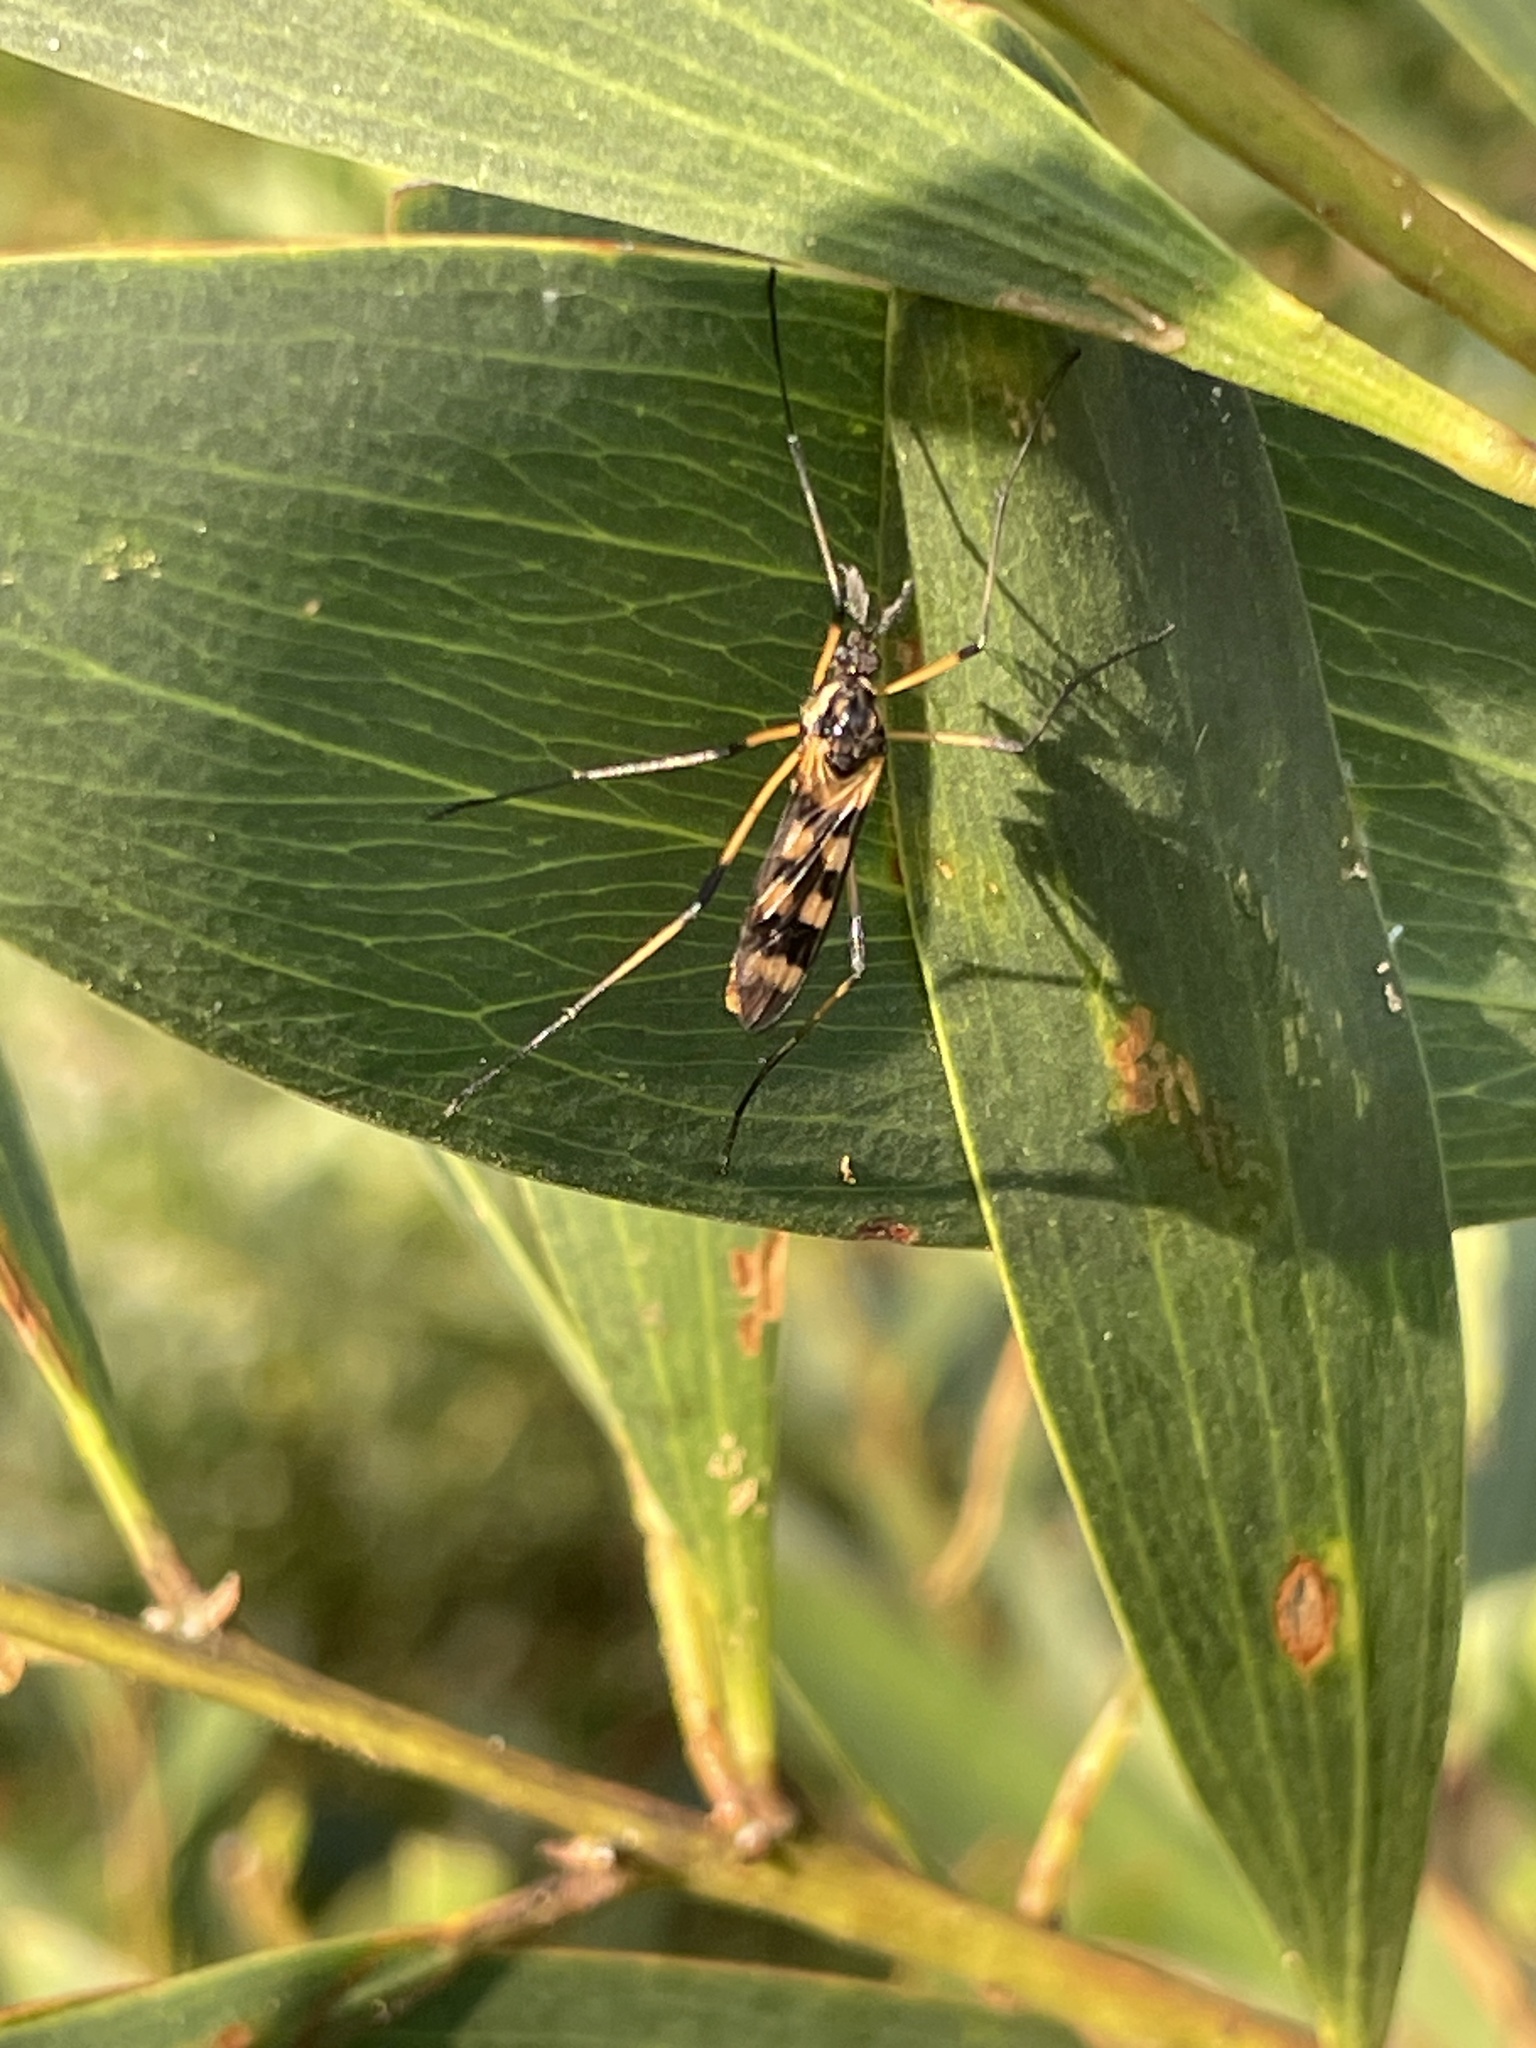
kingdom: Animalia
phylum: Arthropoda
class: Insecta
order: Diptera
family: Limoniidae
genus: Gynoplistia
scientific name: Gynoplistia bella
